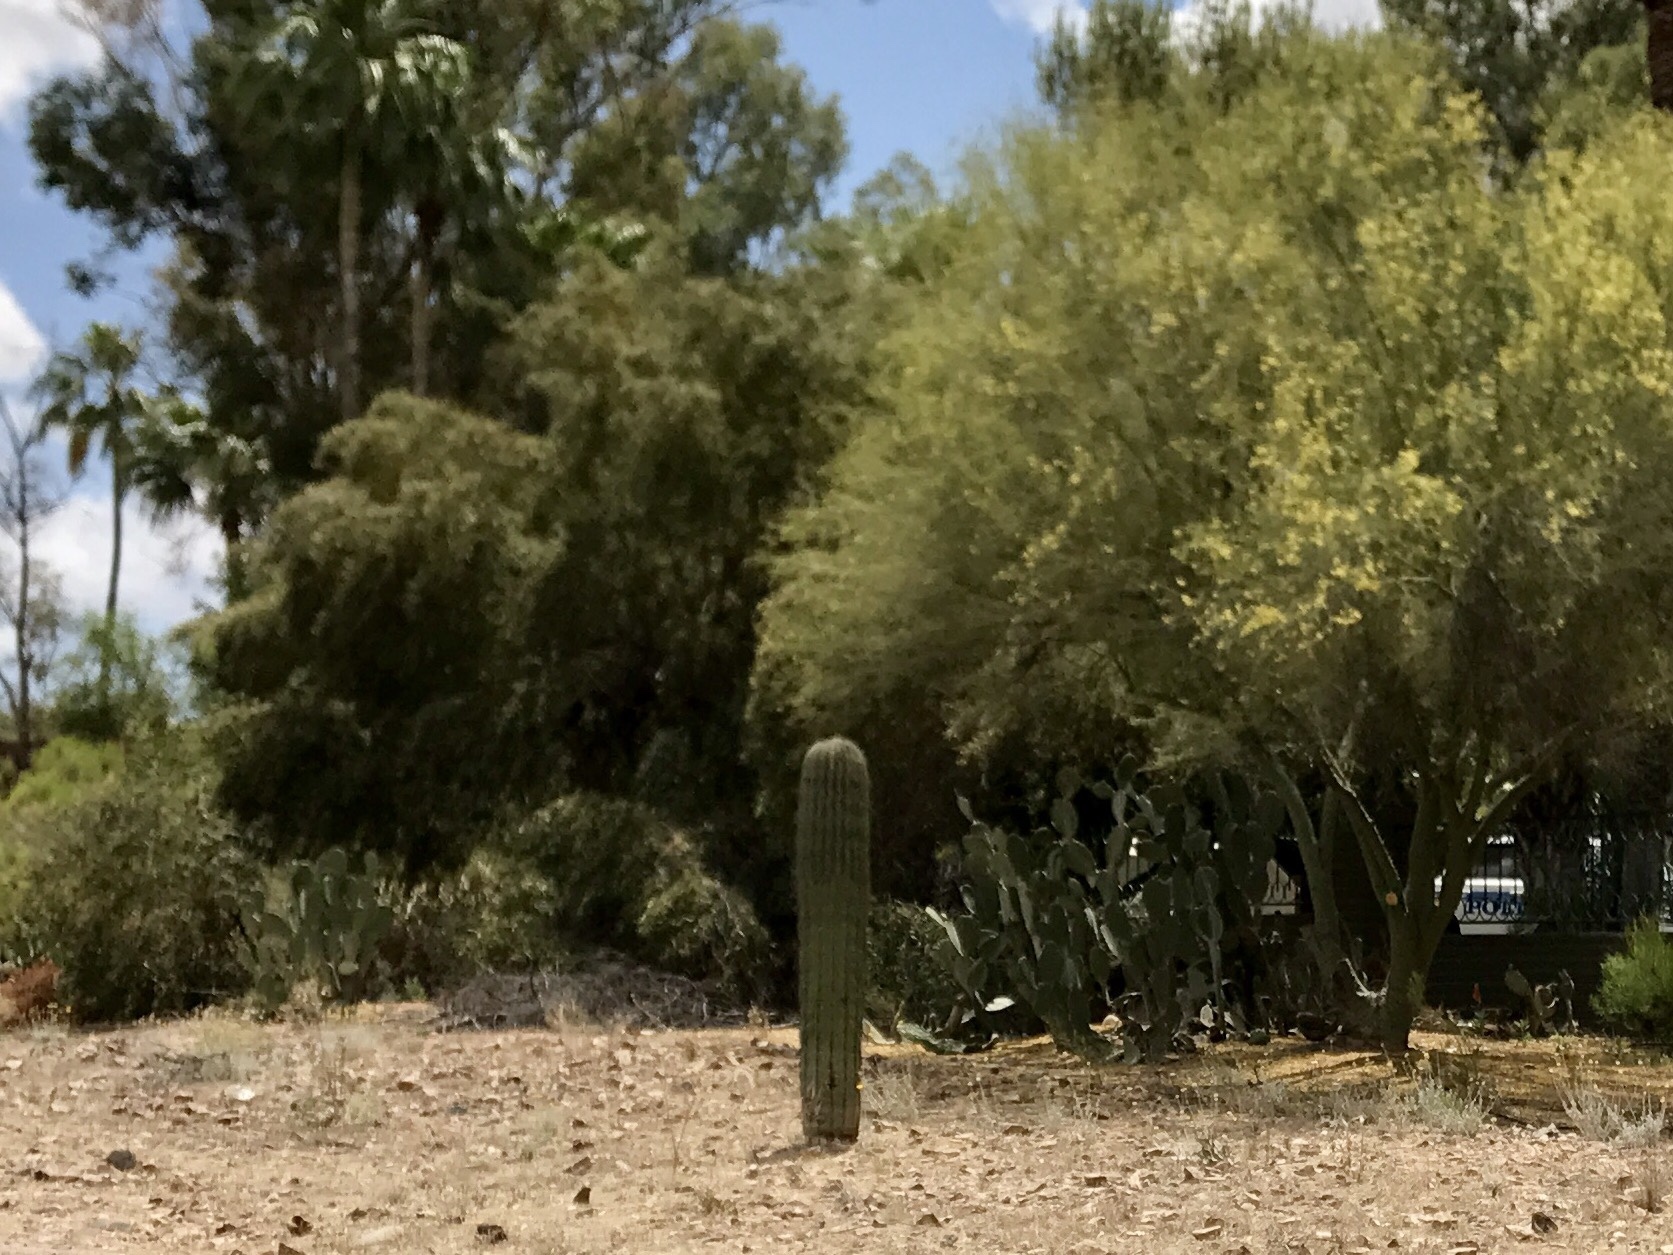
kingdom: Plantae
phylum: Tracheophyta
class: Magnoliopsida
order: Caryophyllales
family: Cactaceae
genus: Carnegiea
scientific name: Carnegiea gigantea
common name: Saguaro
